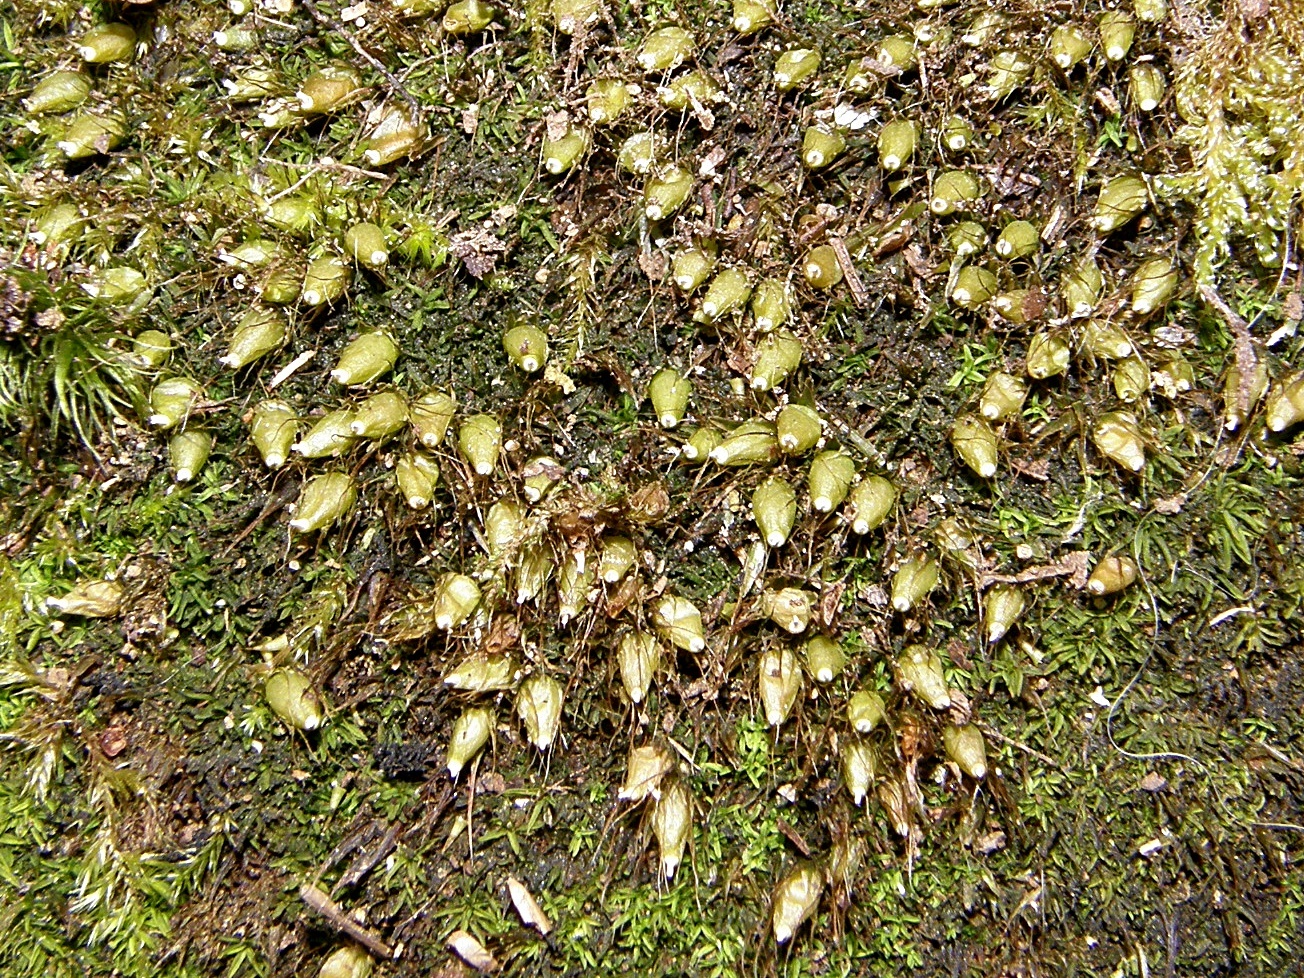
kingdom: Plantae
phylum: Bryophyta
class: Bryopsida
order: Diphysciales
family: Diphysciaceae
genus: Diphyscium
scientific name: Diphyscium foliosum
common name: Nut moss
